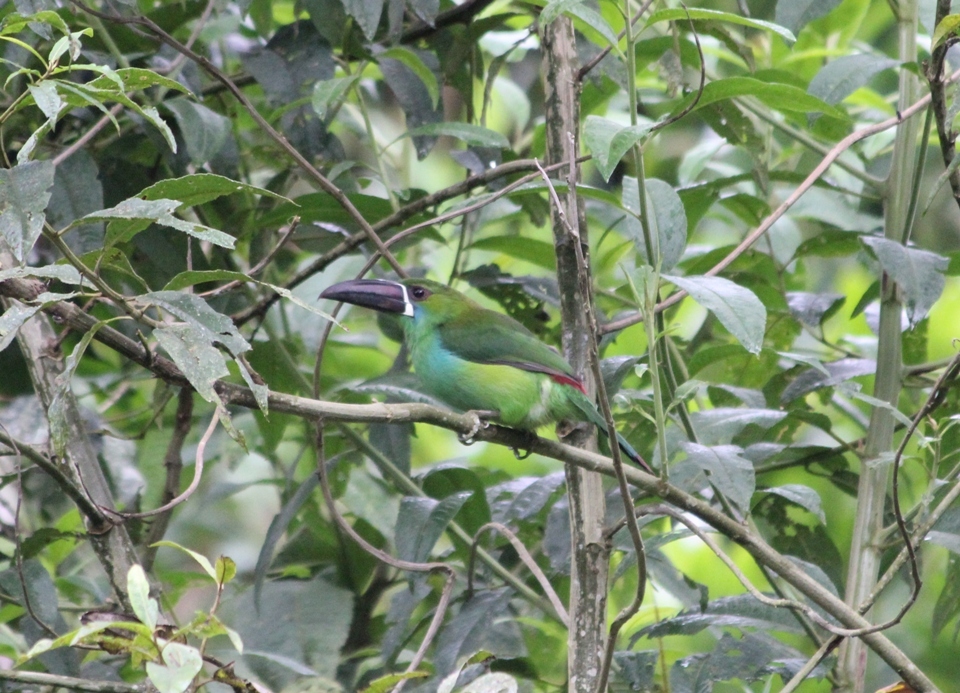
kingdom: Animalia
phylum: Chordata
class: Aves
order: Piciformes
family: Ramphastidae
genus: Aulacorhynchus
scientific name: Aulacorhynchus haematopygus
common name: Crimson-rumped toucanet
